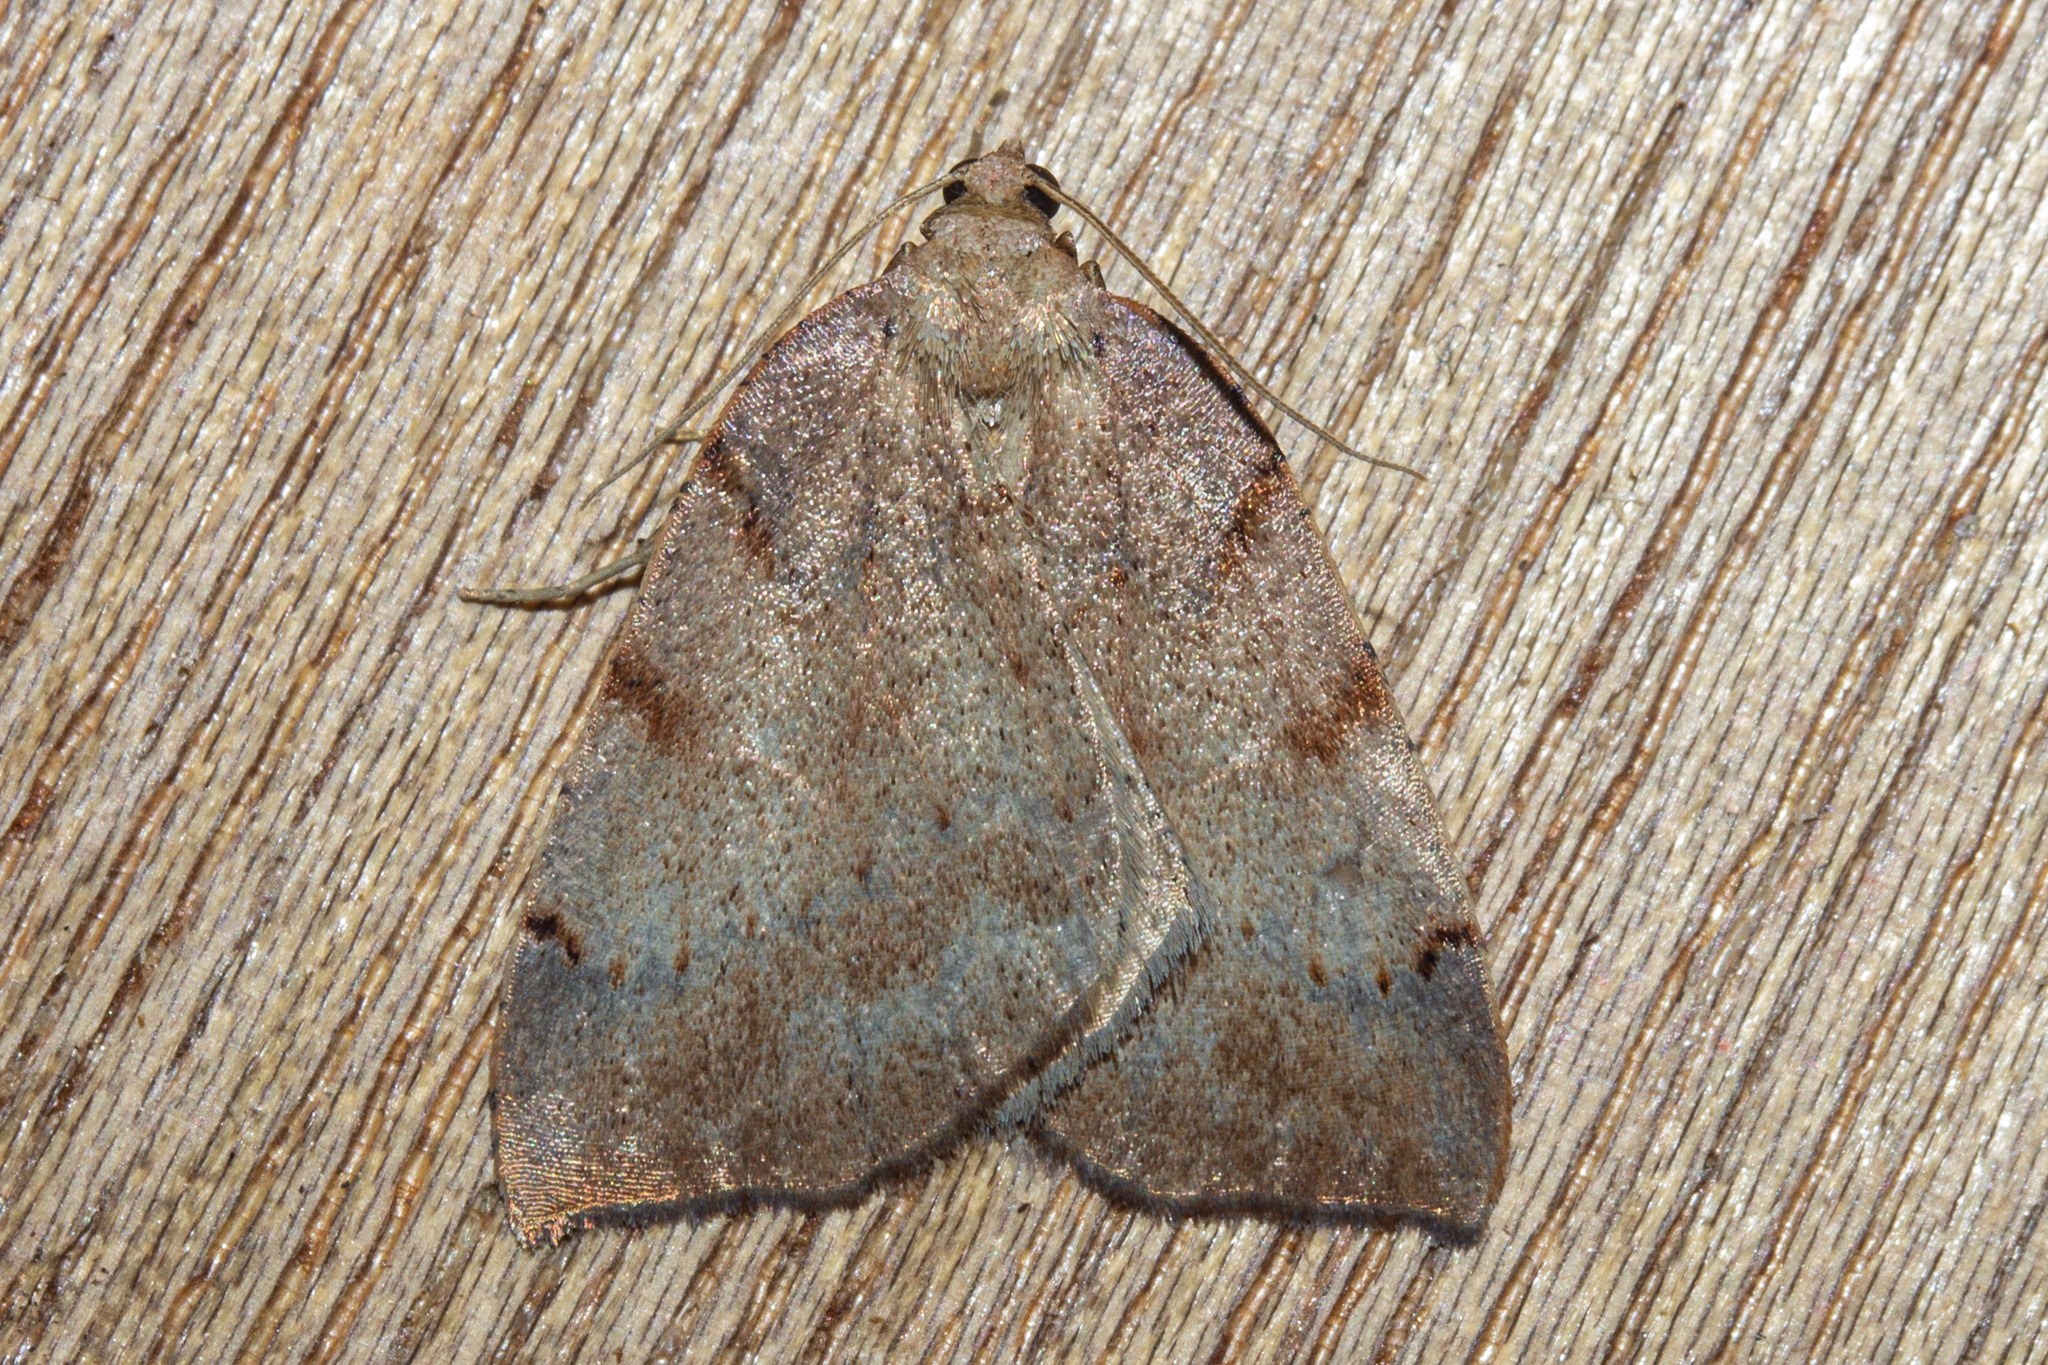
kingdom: Animalia
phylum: Arthropoda
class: Insecta
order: Lepidoptera
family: Geometridae
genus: Sestra
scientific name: Sestra humeraria
